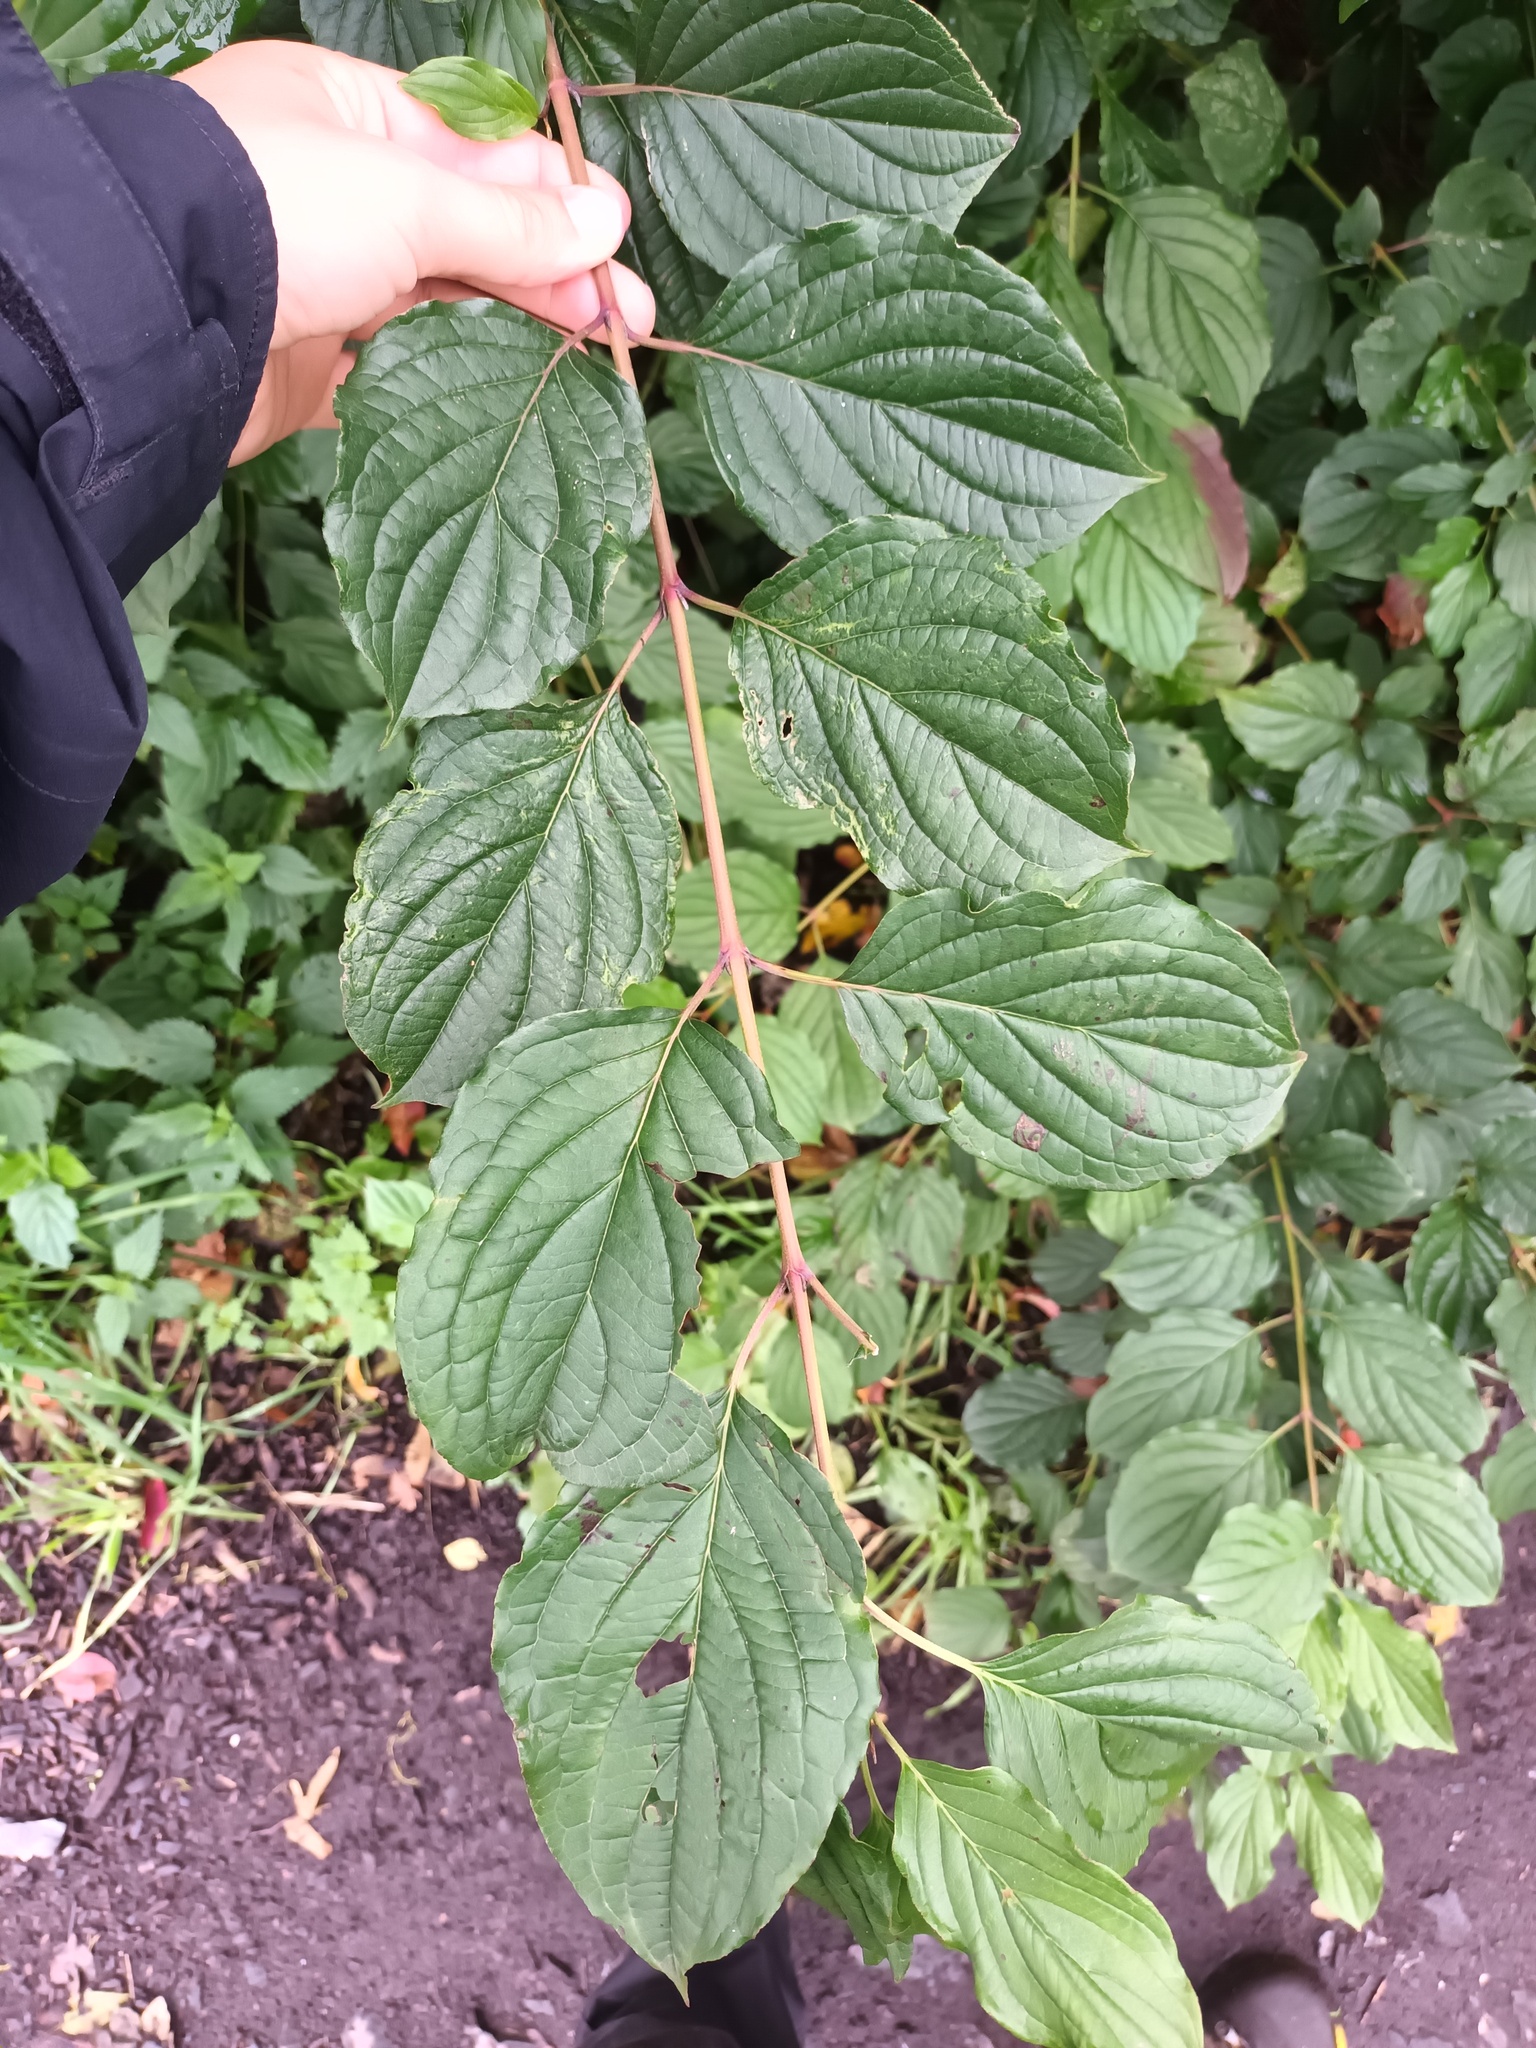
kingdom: Plantae
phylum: Tracheophyta
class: Magnoliopsida
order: Cornales
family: Cornaceae
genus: Cornus
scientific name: Cornus sanguinea
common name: Dogwood
